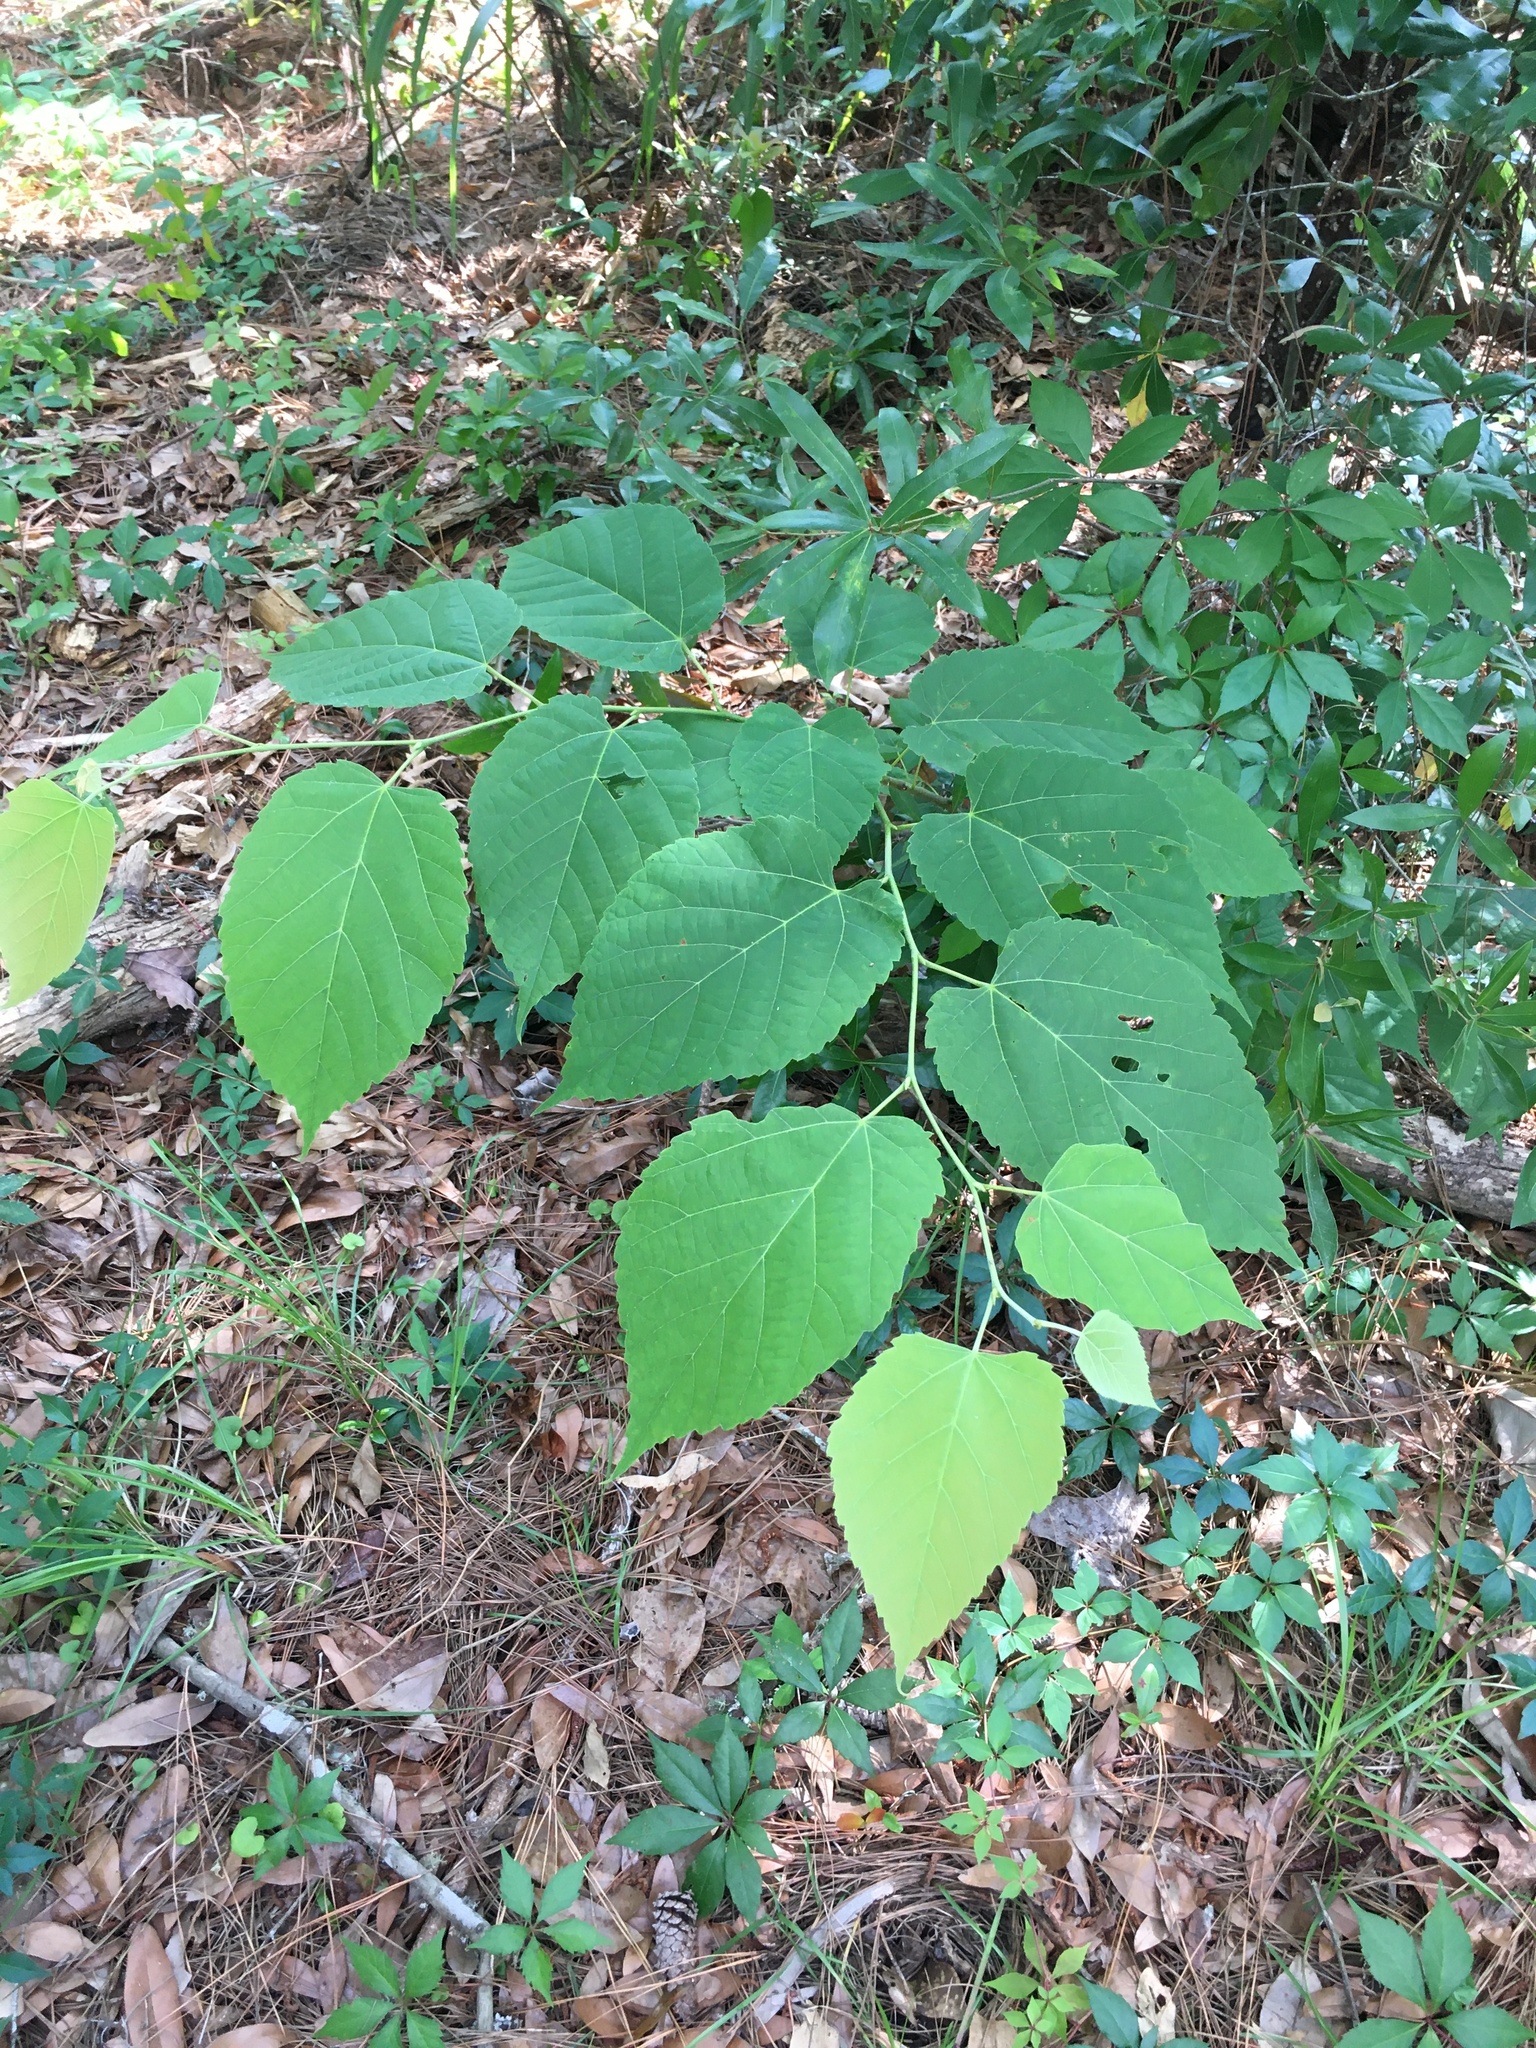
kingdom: Plantae
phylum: Tracheophyta
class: Magnoliopsida
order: Malvales
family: Malvaceae
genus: Tilia
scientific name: Tilia americana
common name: Basswood
